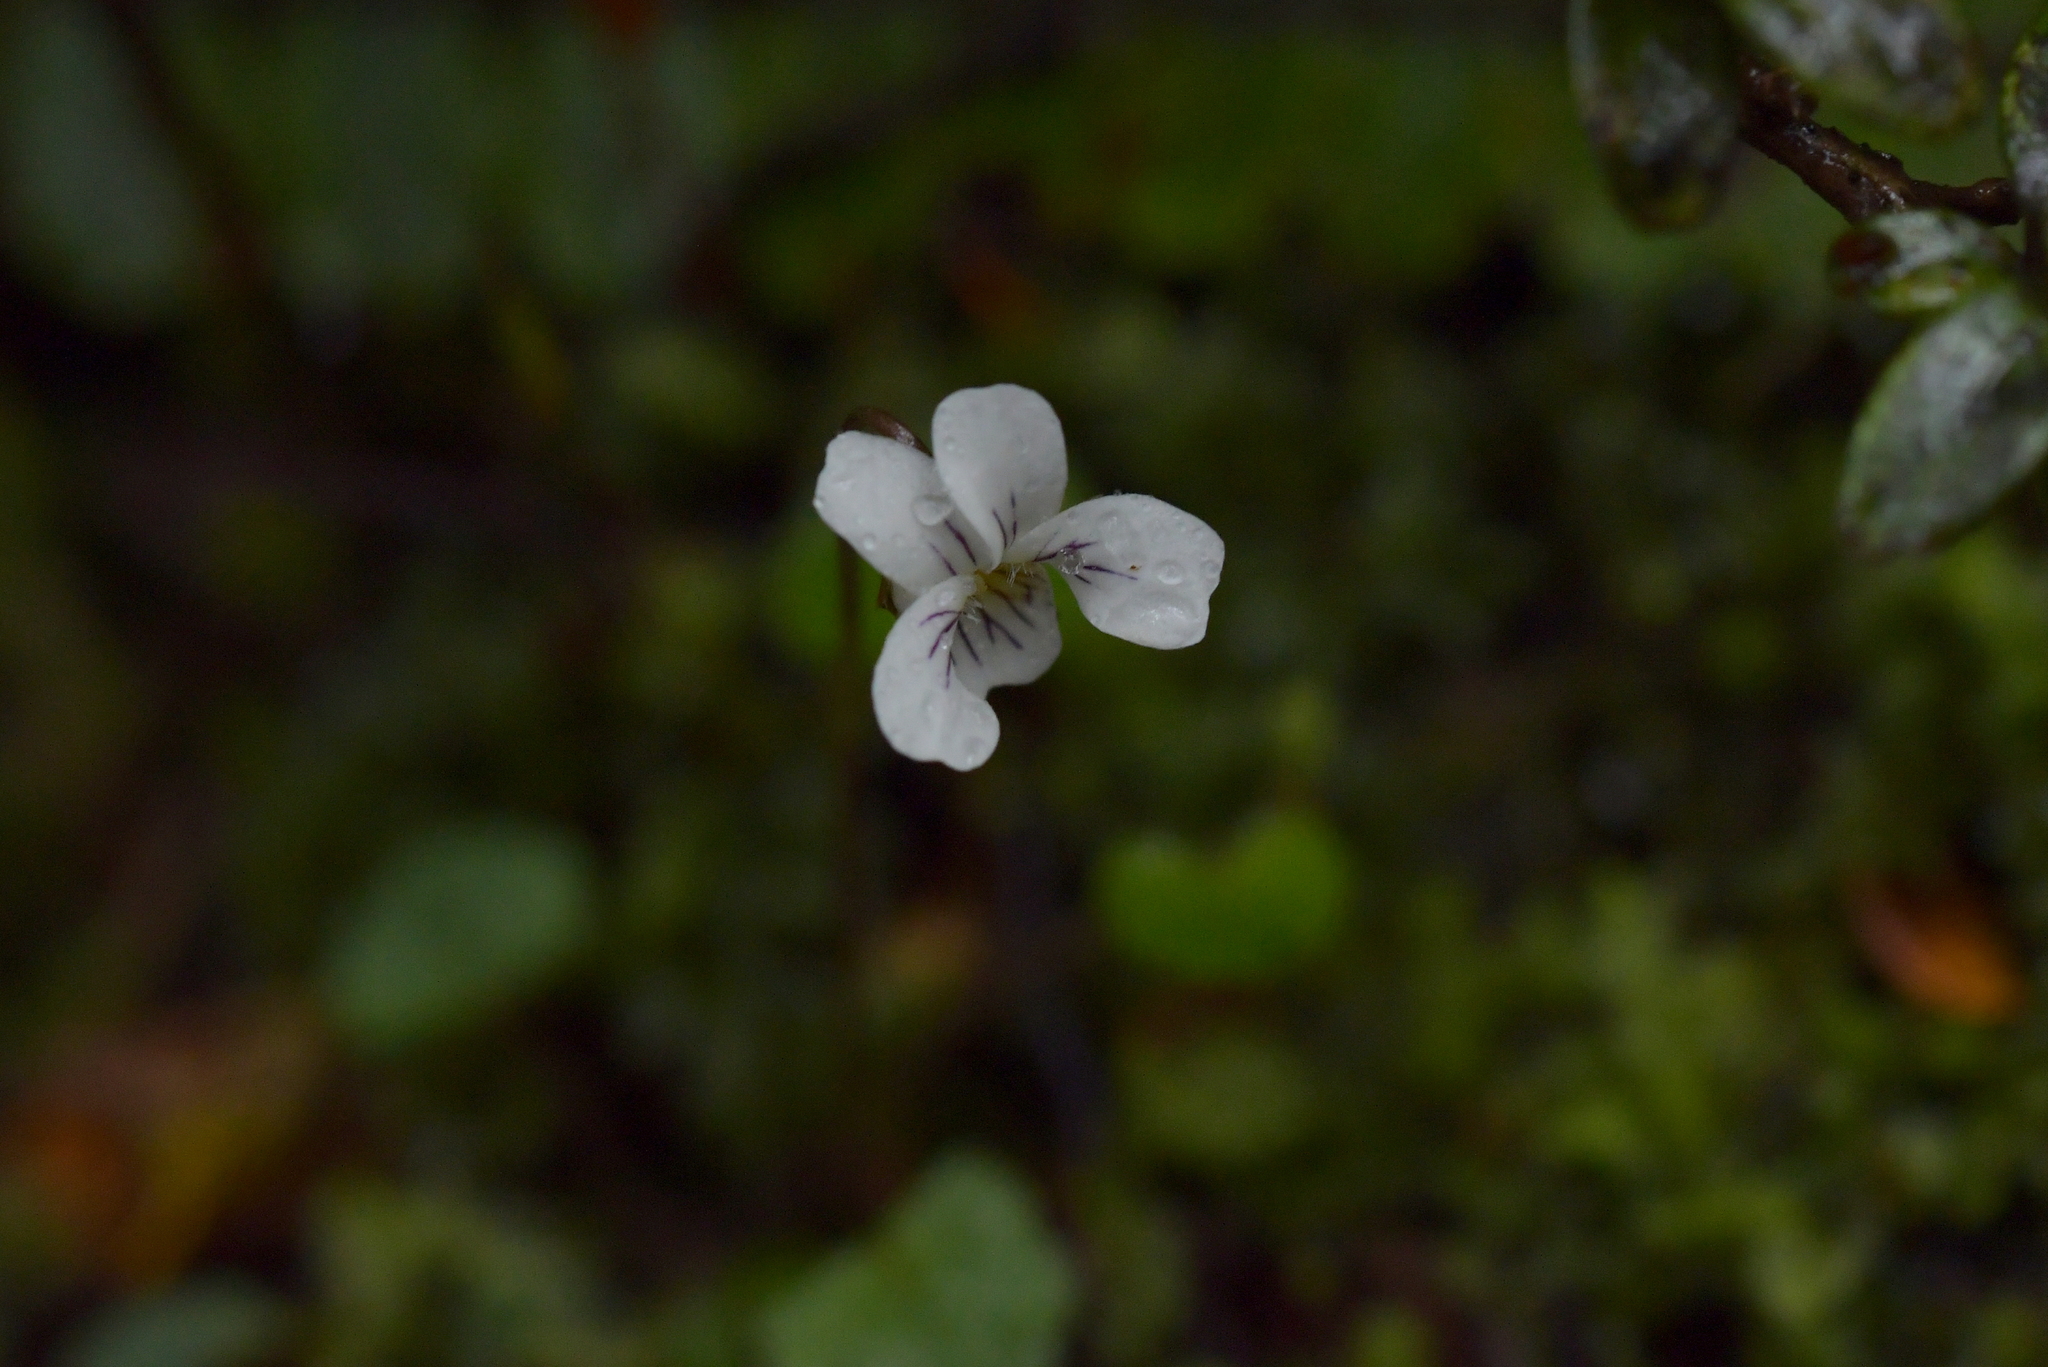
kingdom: Plantae
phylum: Tracheophyta
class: Magnoliopsida
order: Malpighiales
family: Violaceae
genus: Viola
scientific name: Viola filicaulis
